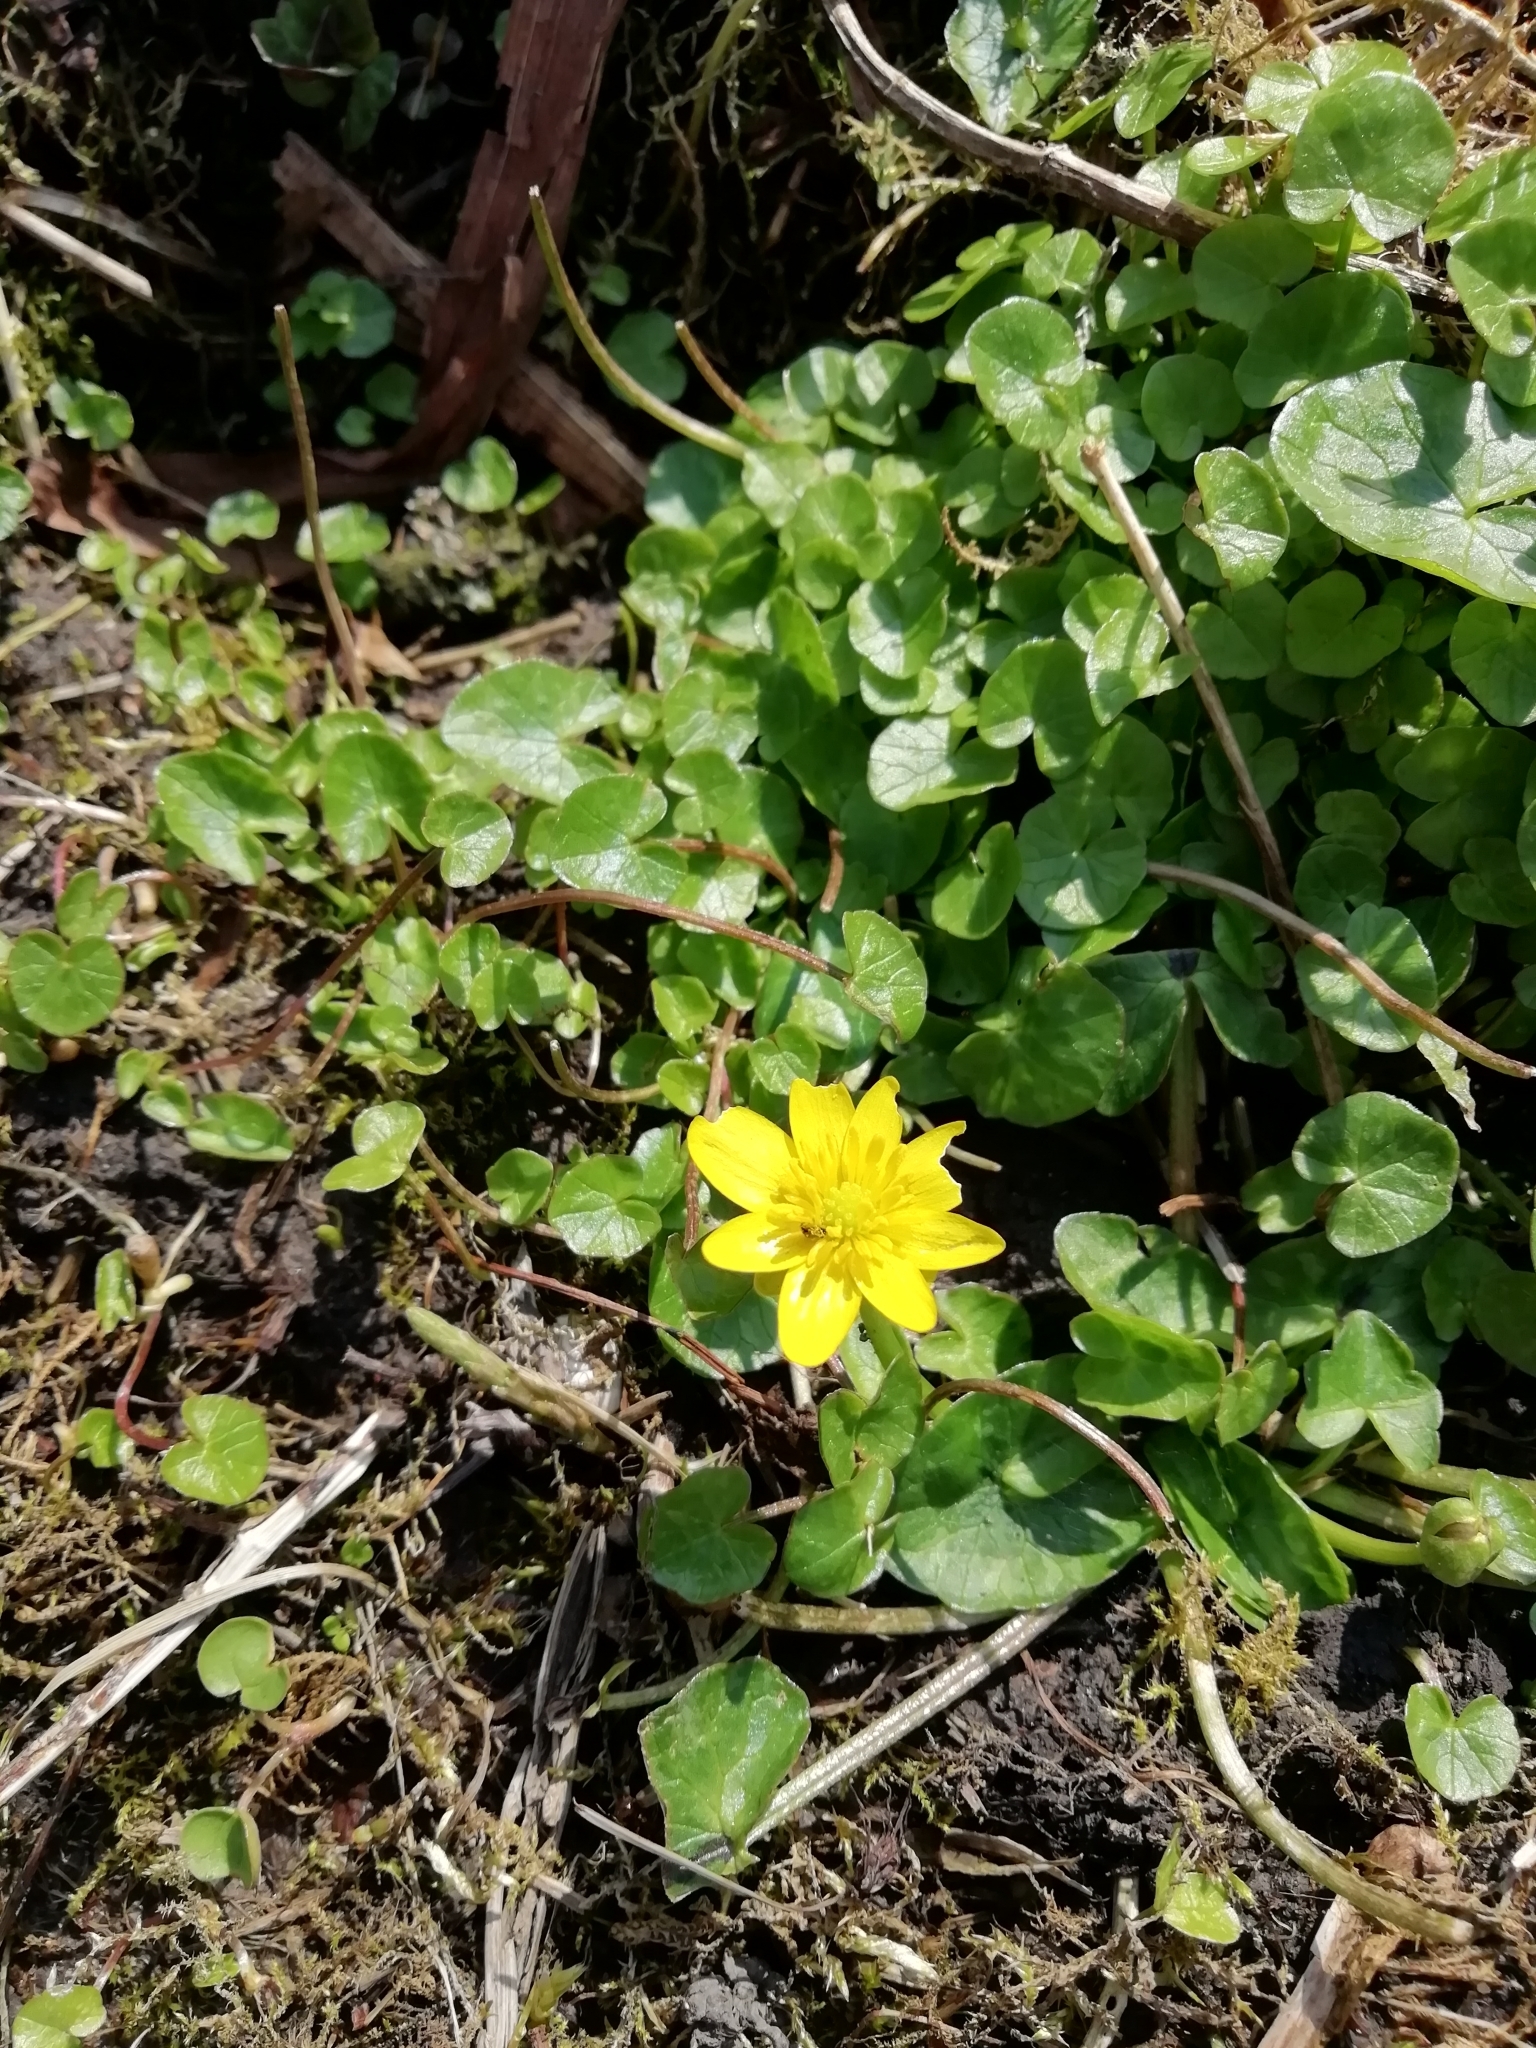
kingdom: Plantae
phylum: Tracheophyta
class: Magnoliopsida
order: Ranunculales
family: Ranunculaceae
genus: Ficaria
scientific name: Ficaria verna
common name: Lesser celandine
